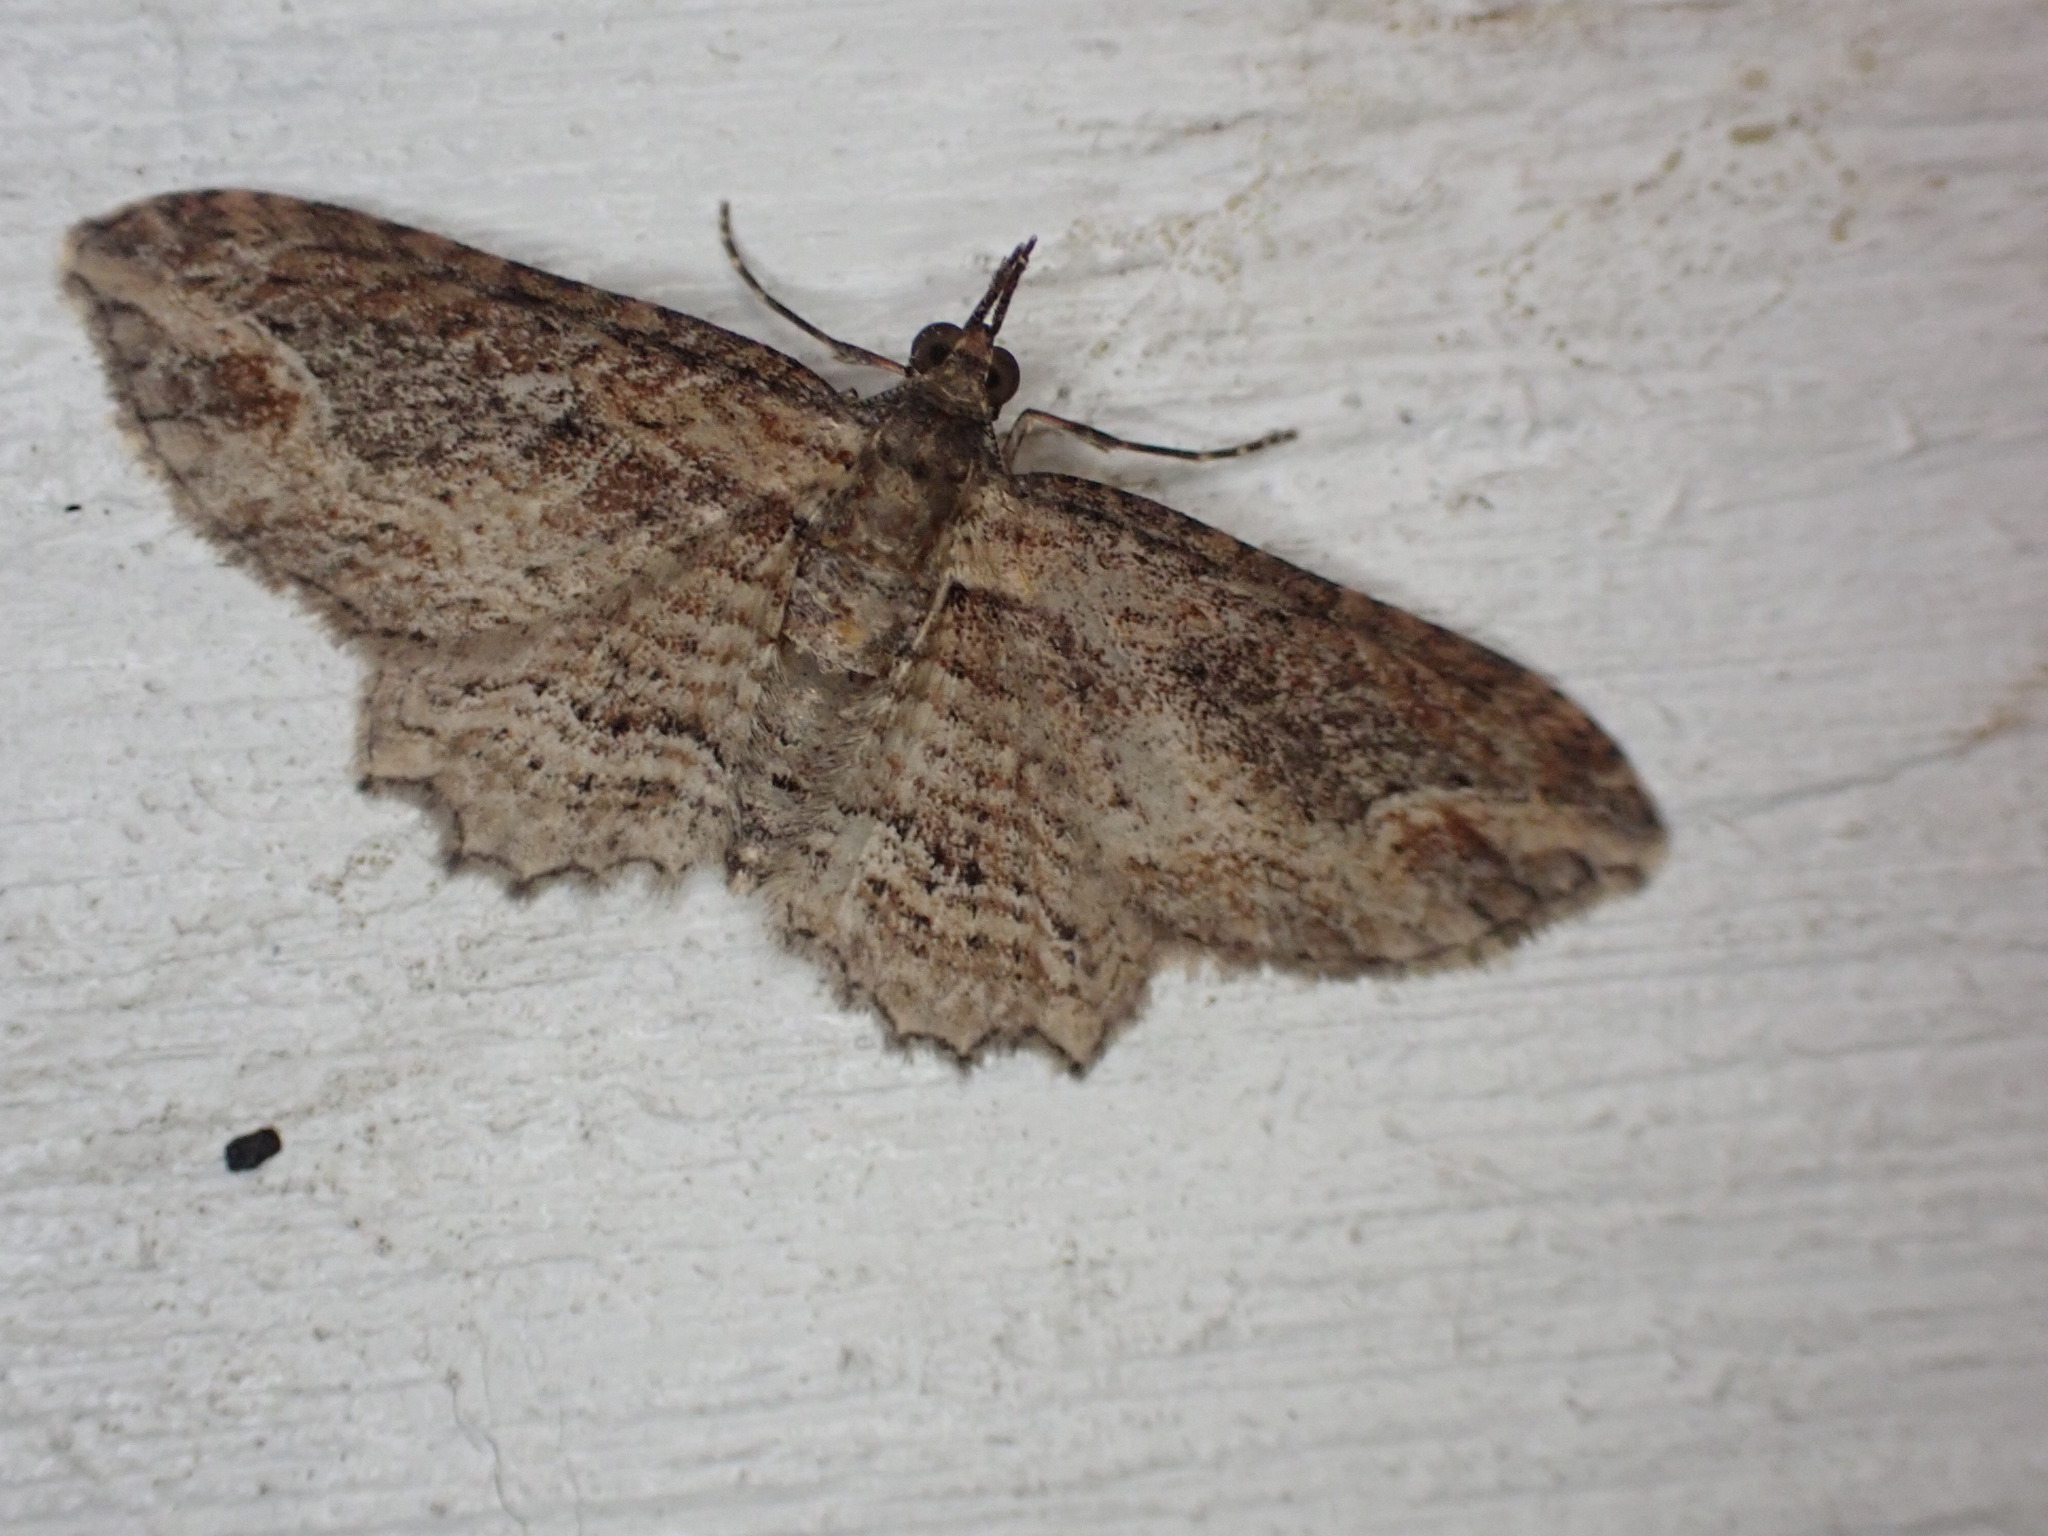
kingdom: Animalia
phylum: Arthropoda
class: Insecta
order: Lepidoptera
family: Geometridae
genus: Chloroclystis
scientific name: Chloroclystis filata
